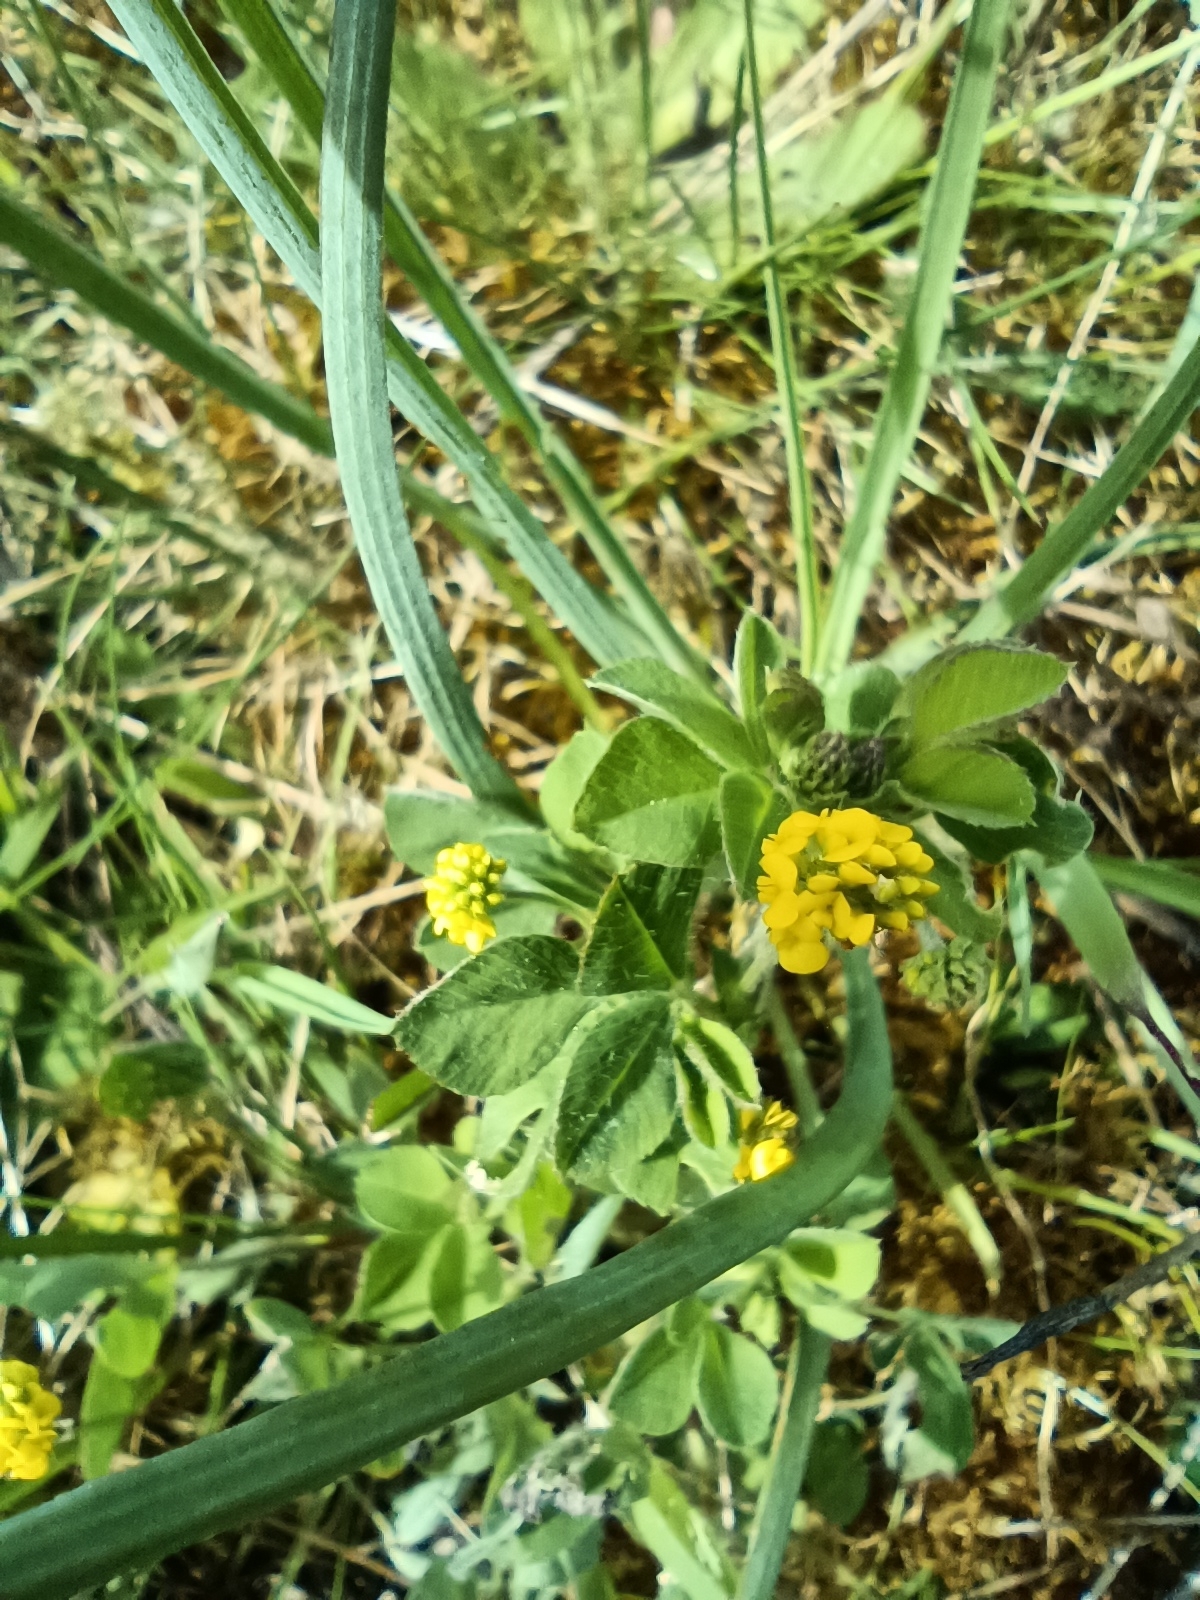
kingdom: Plantae
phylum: Tracheophyta
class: Magnoliopsida
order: Fabales
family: Fabaceae
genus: Medicago
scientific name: Medicago lupulina
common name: Black medick
